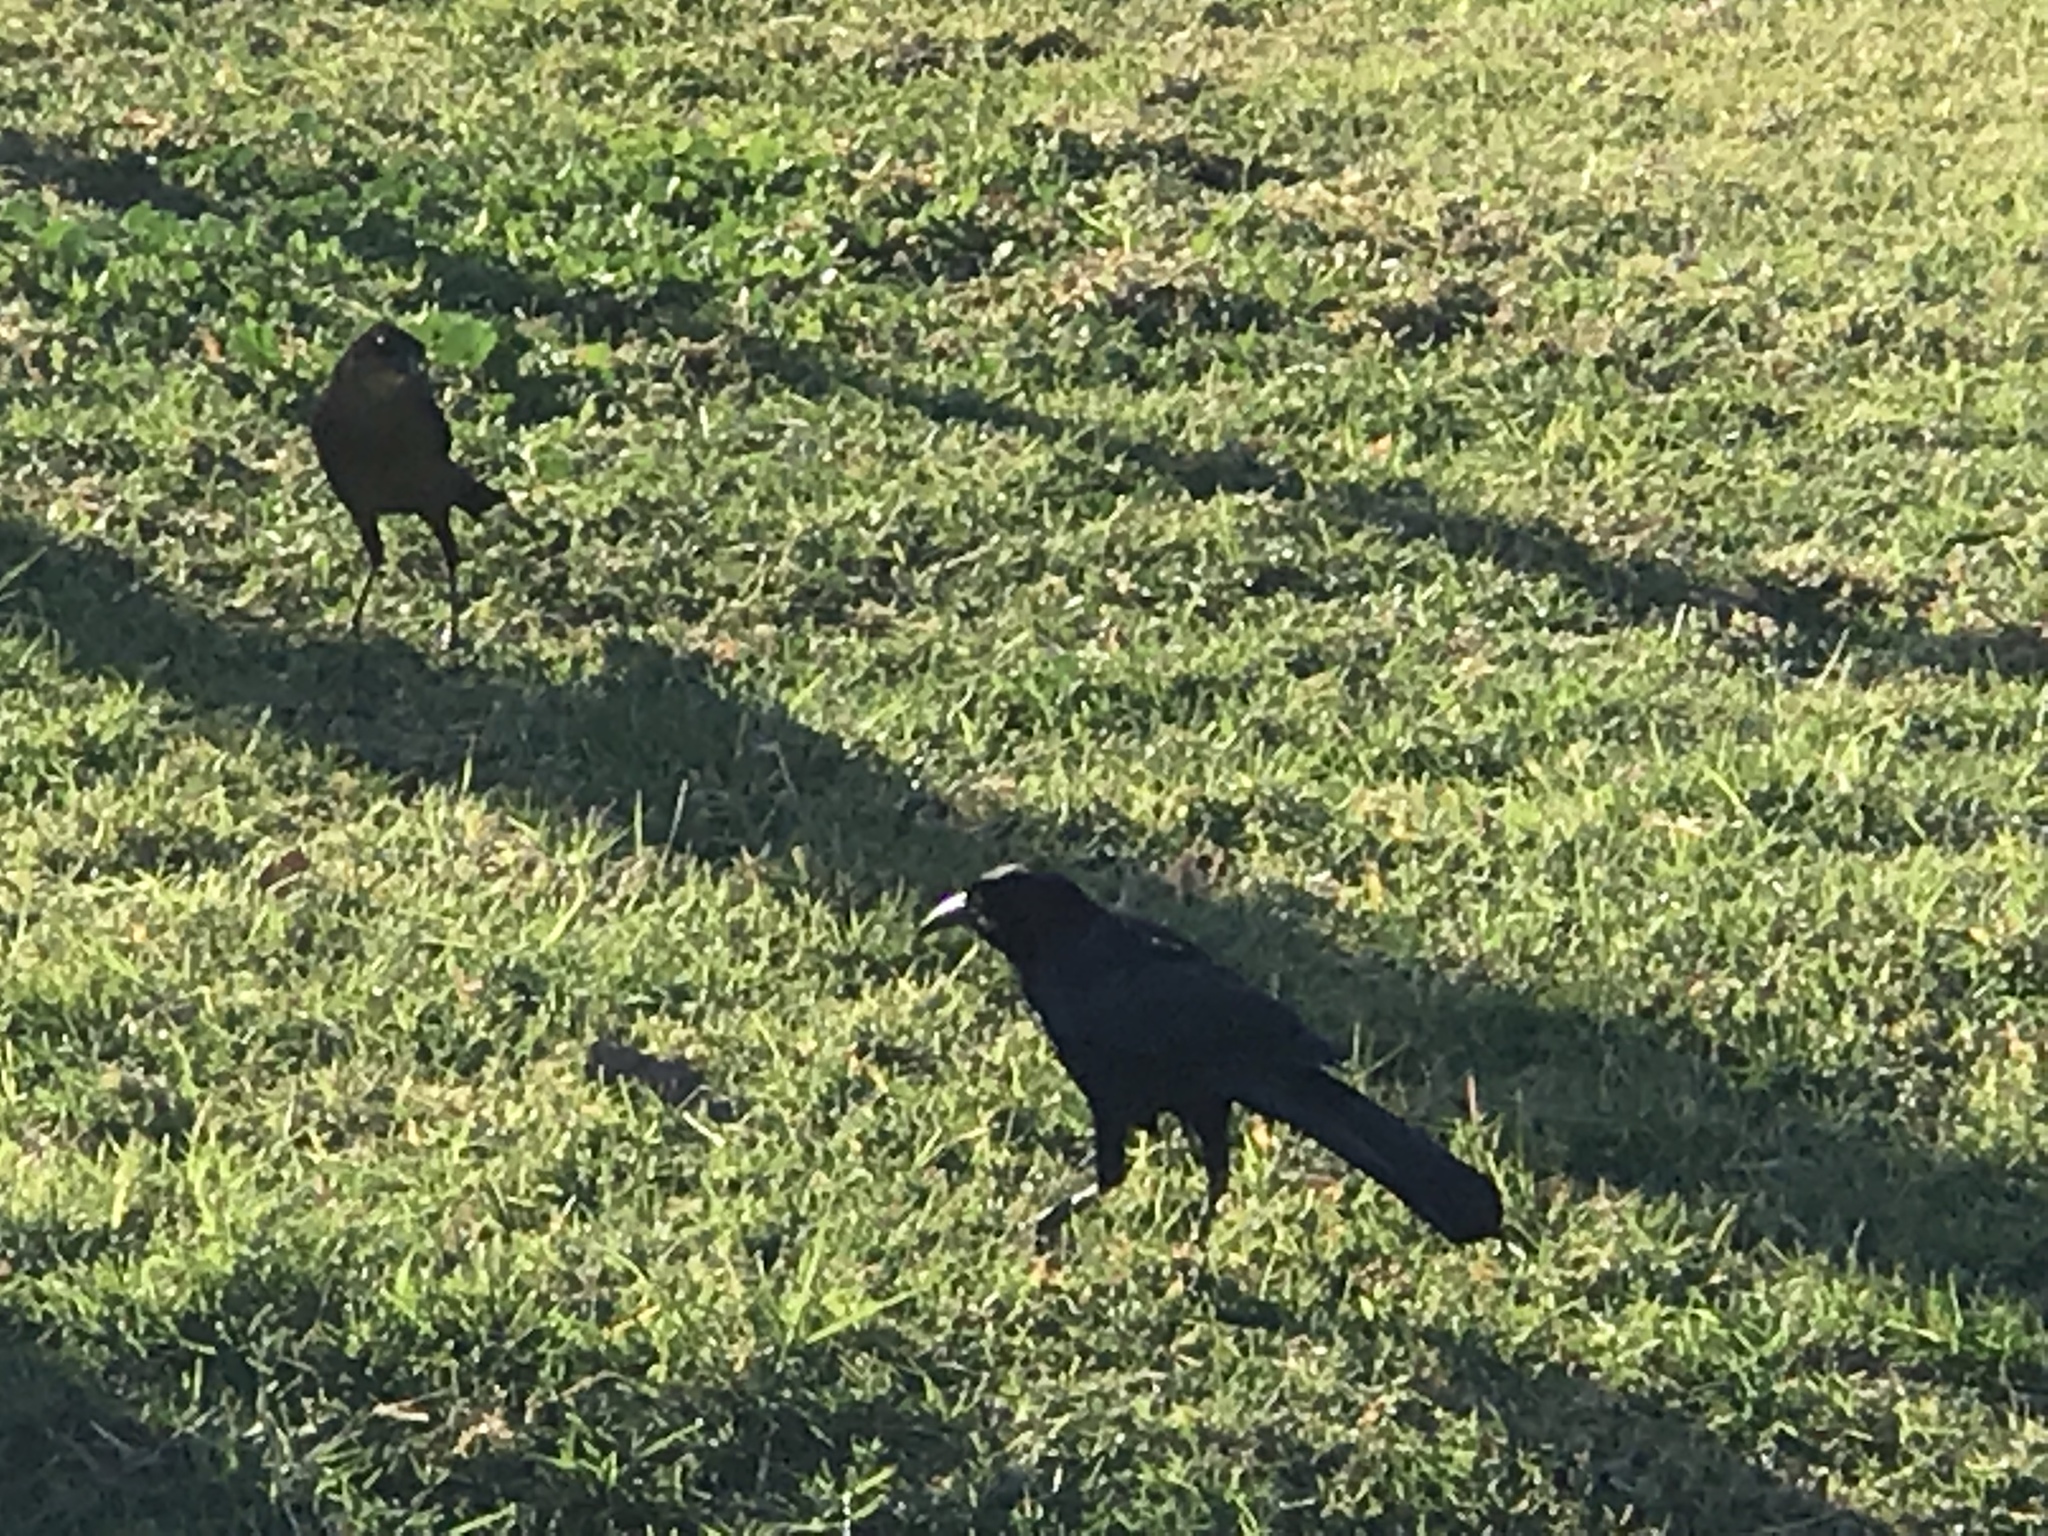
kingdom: Animalia
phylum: Chordata
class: Aves
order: Passeriformes
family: Icteridae
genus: Quiscalus
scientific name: Quiscalus mexicanus
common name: Great-tailed grackle
